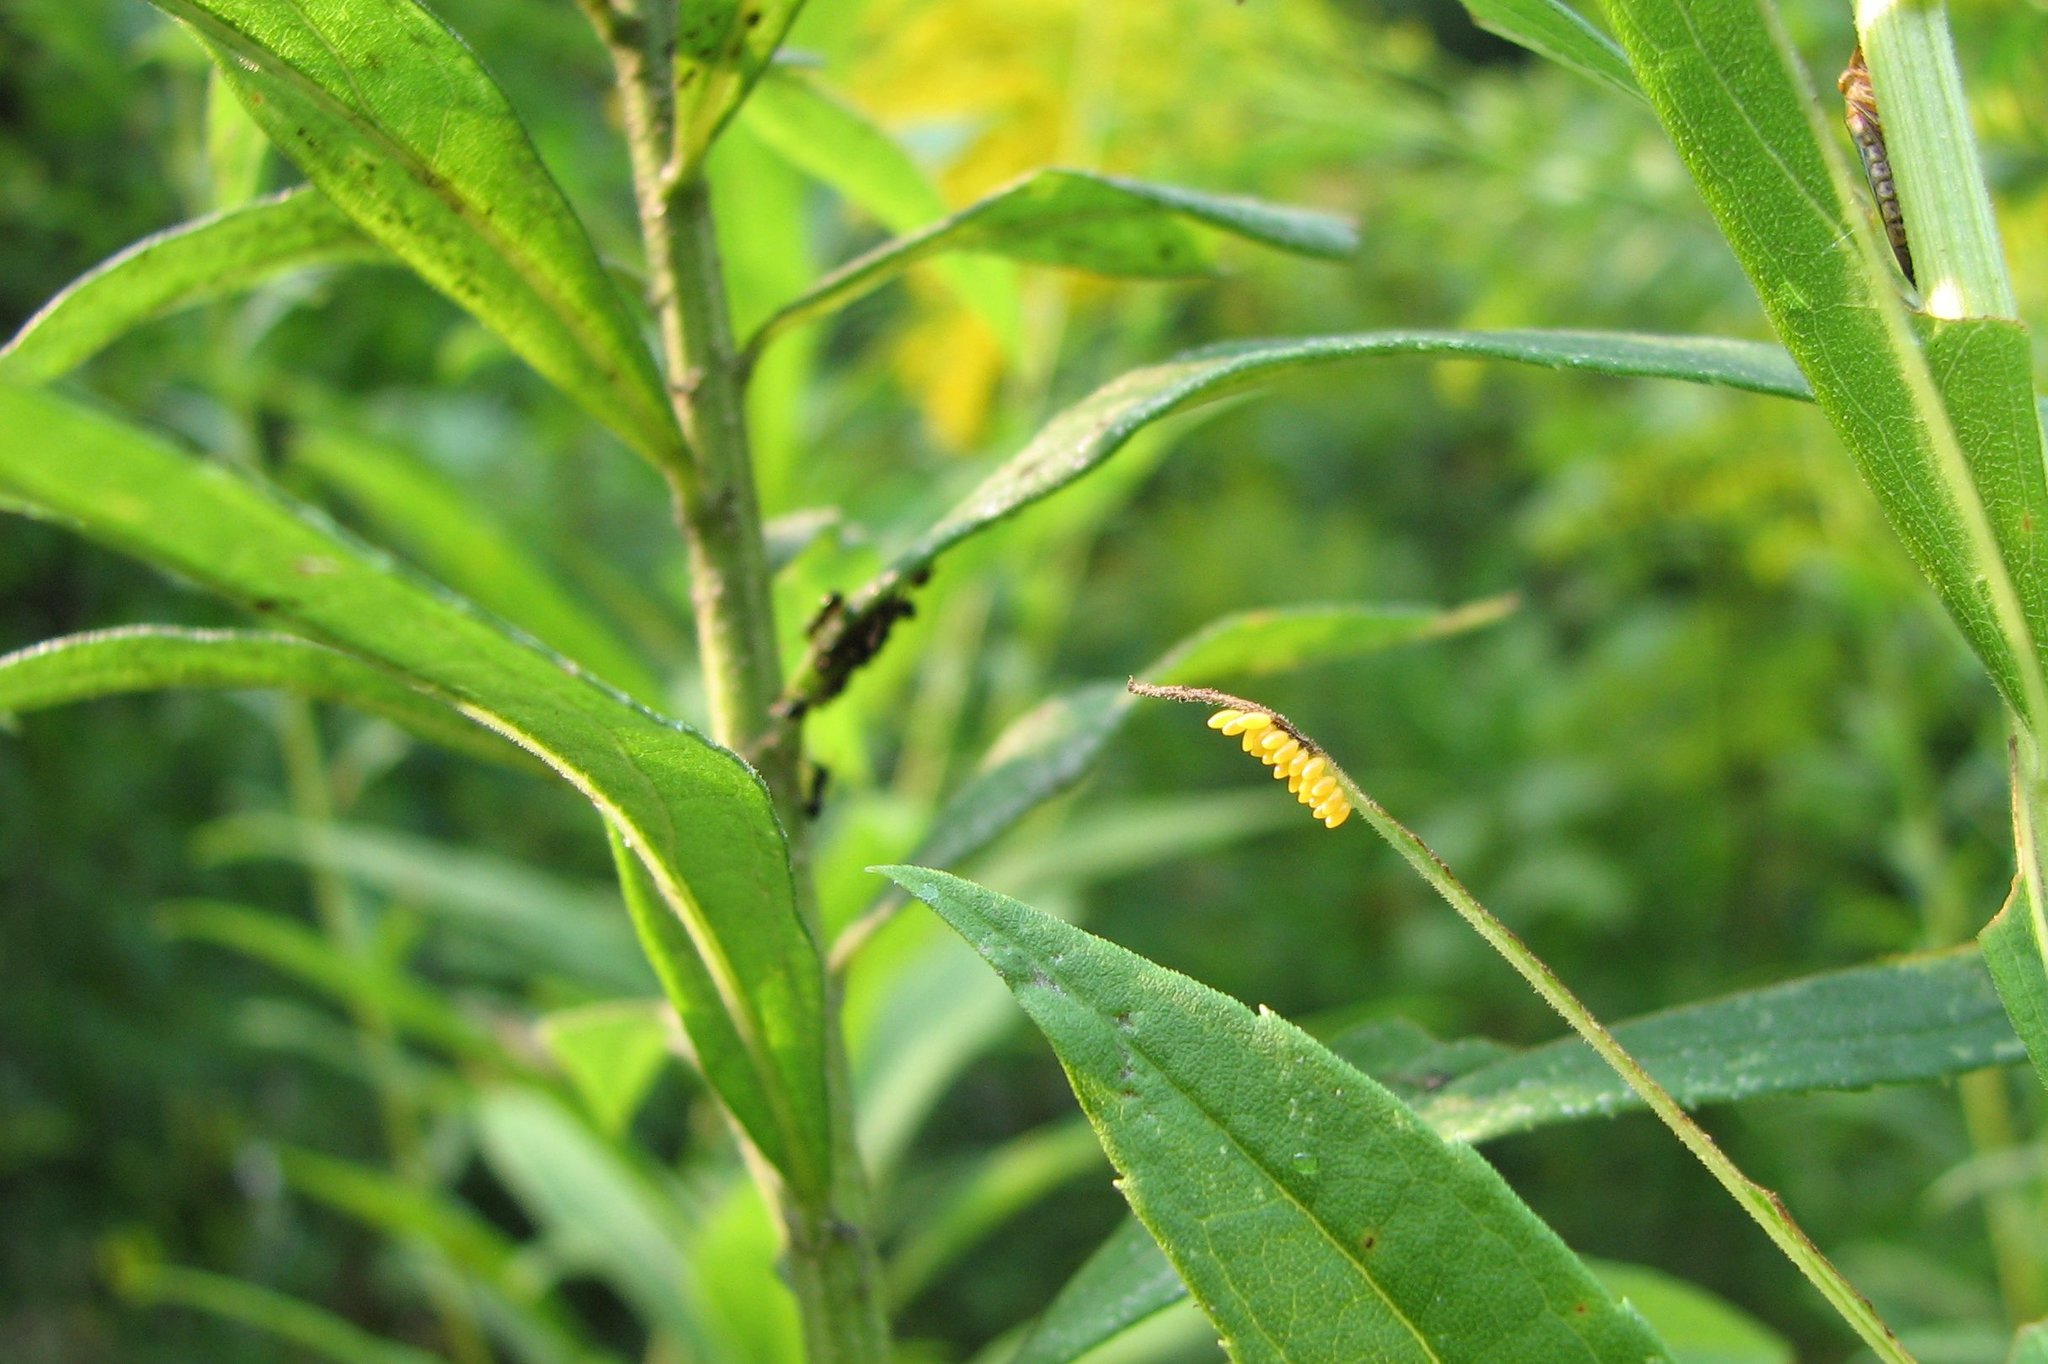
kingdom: Animalia
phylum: Arthropoda
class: Insecta
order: Hemiptera
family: Cicadellidae
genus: Oncometopia
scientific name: Oncometopia orbona
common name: Broad-headed sharpshooter
